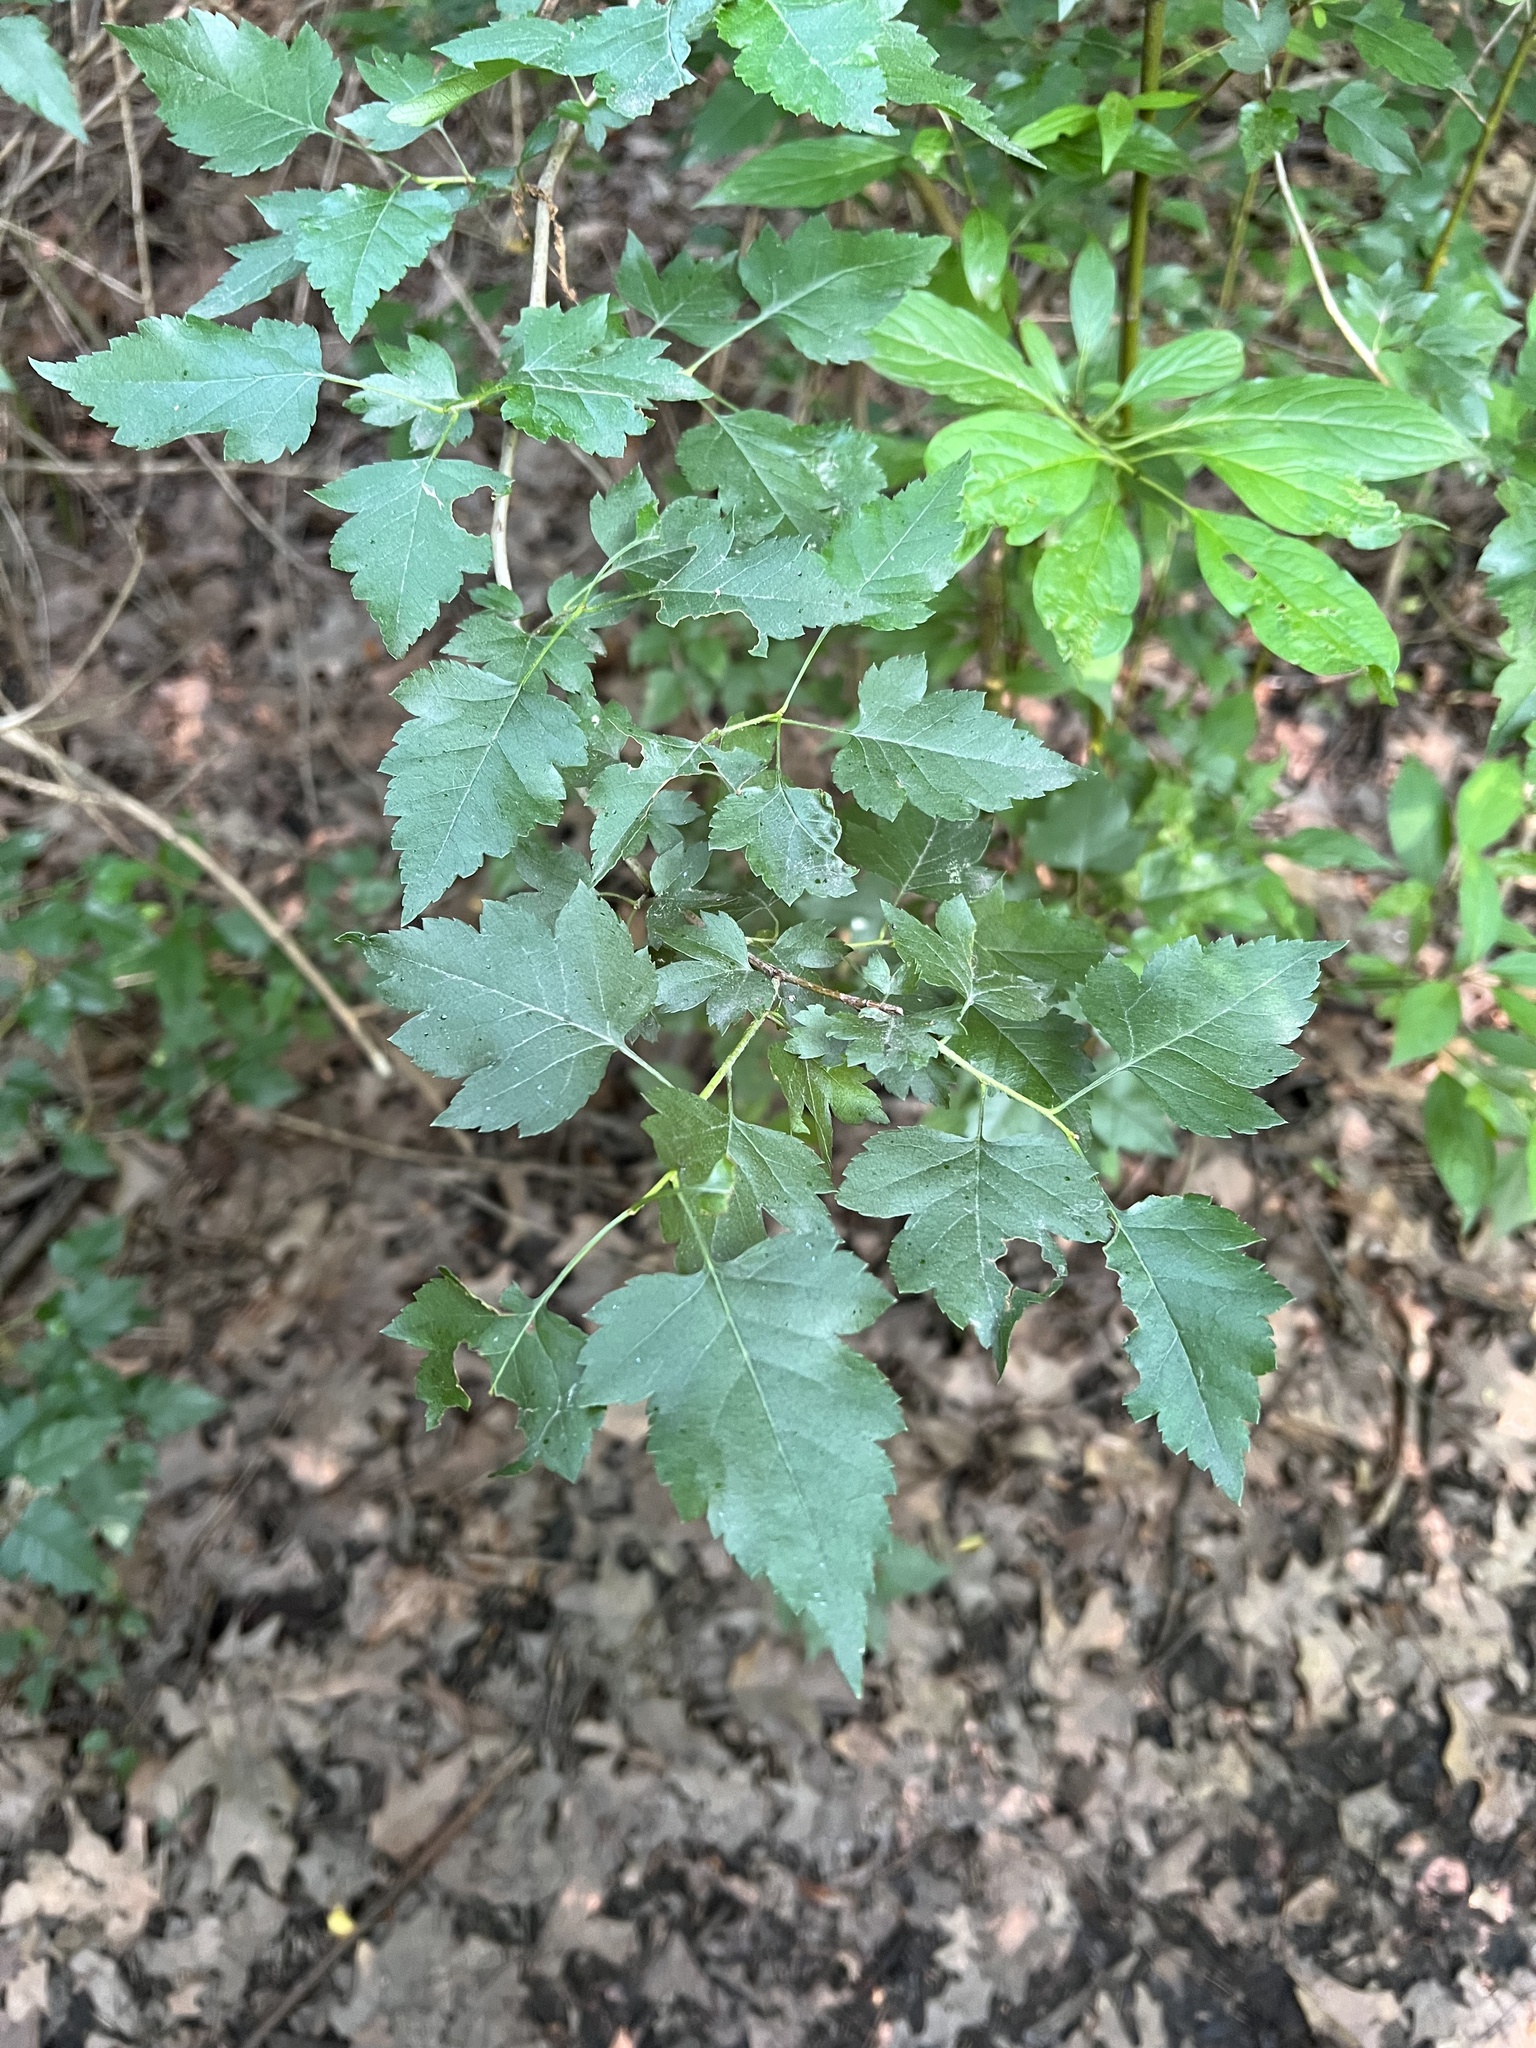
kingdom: Plantae
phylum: Tracheophyta
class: Magnoliopsida
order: Rosales
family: Rosaceae
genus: Crataegus
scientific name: Crataegus phaenopyrum
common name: Washington hawthorn
